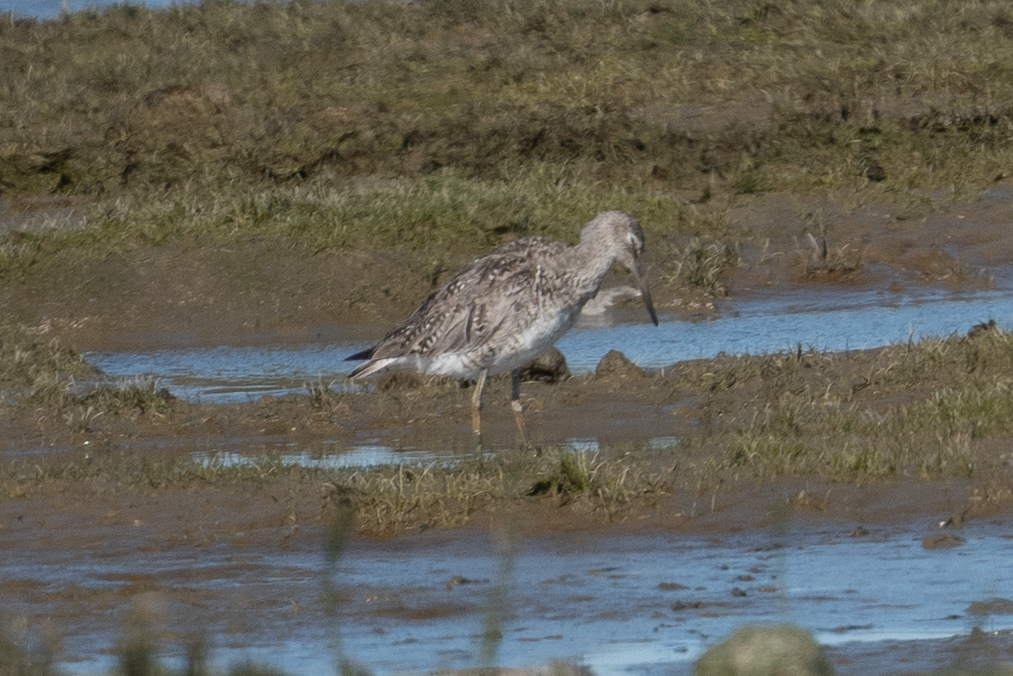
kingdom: Animalia
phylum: Chordata
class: Aves
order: Charadriiformes
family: Scolopacidae
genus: Tringa
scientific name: Tringa semipalmata
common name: Willet
